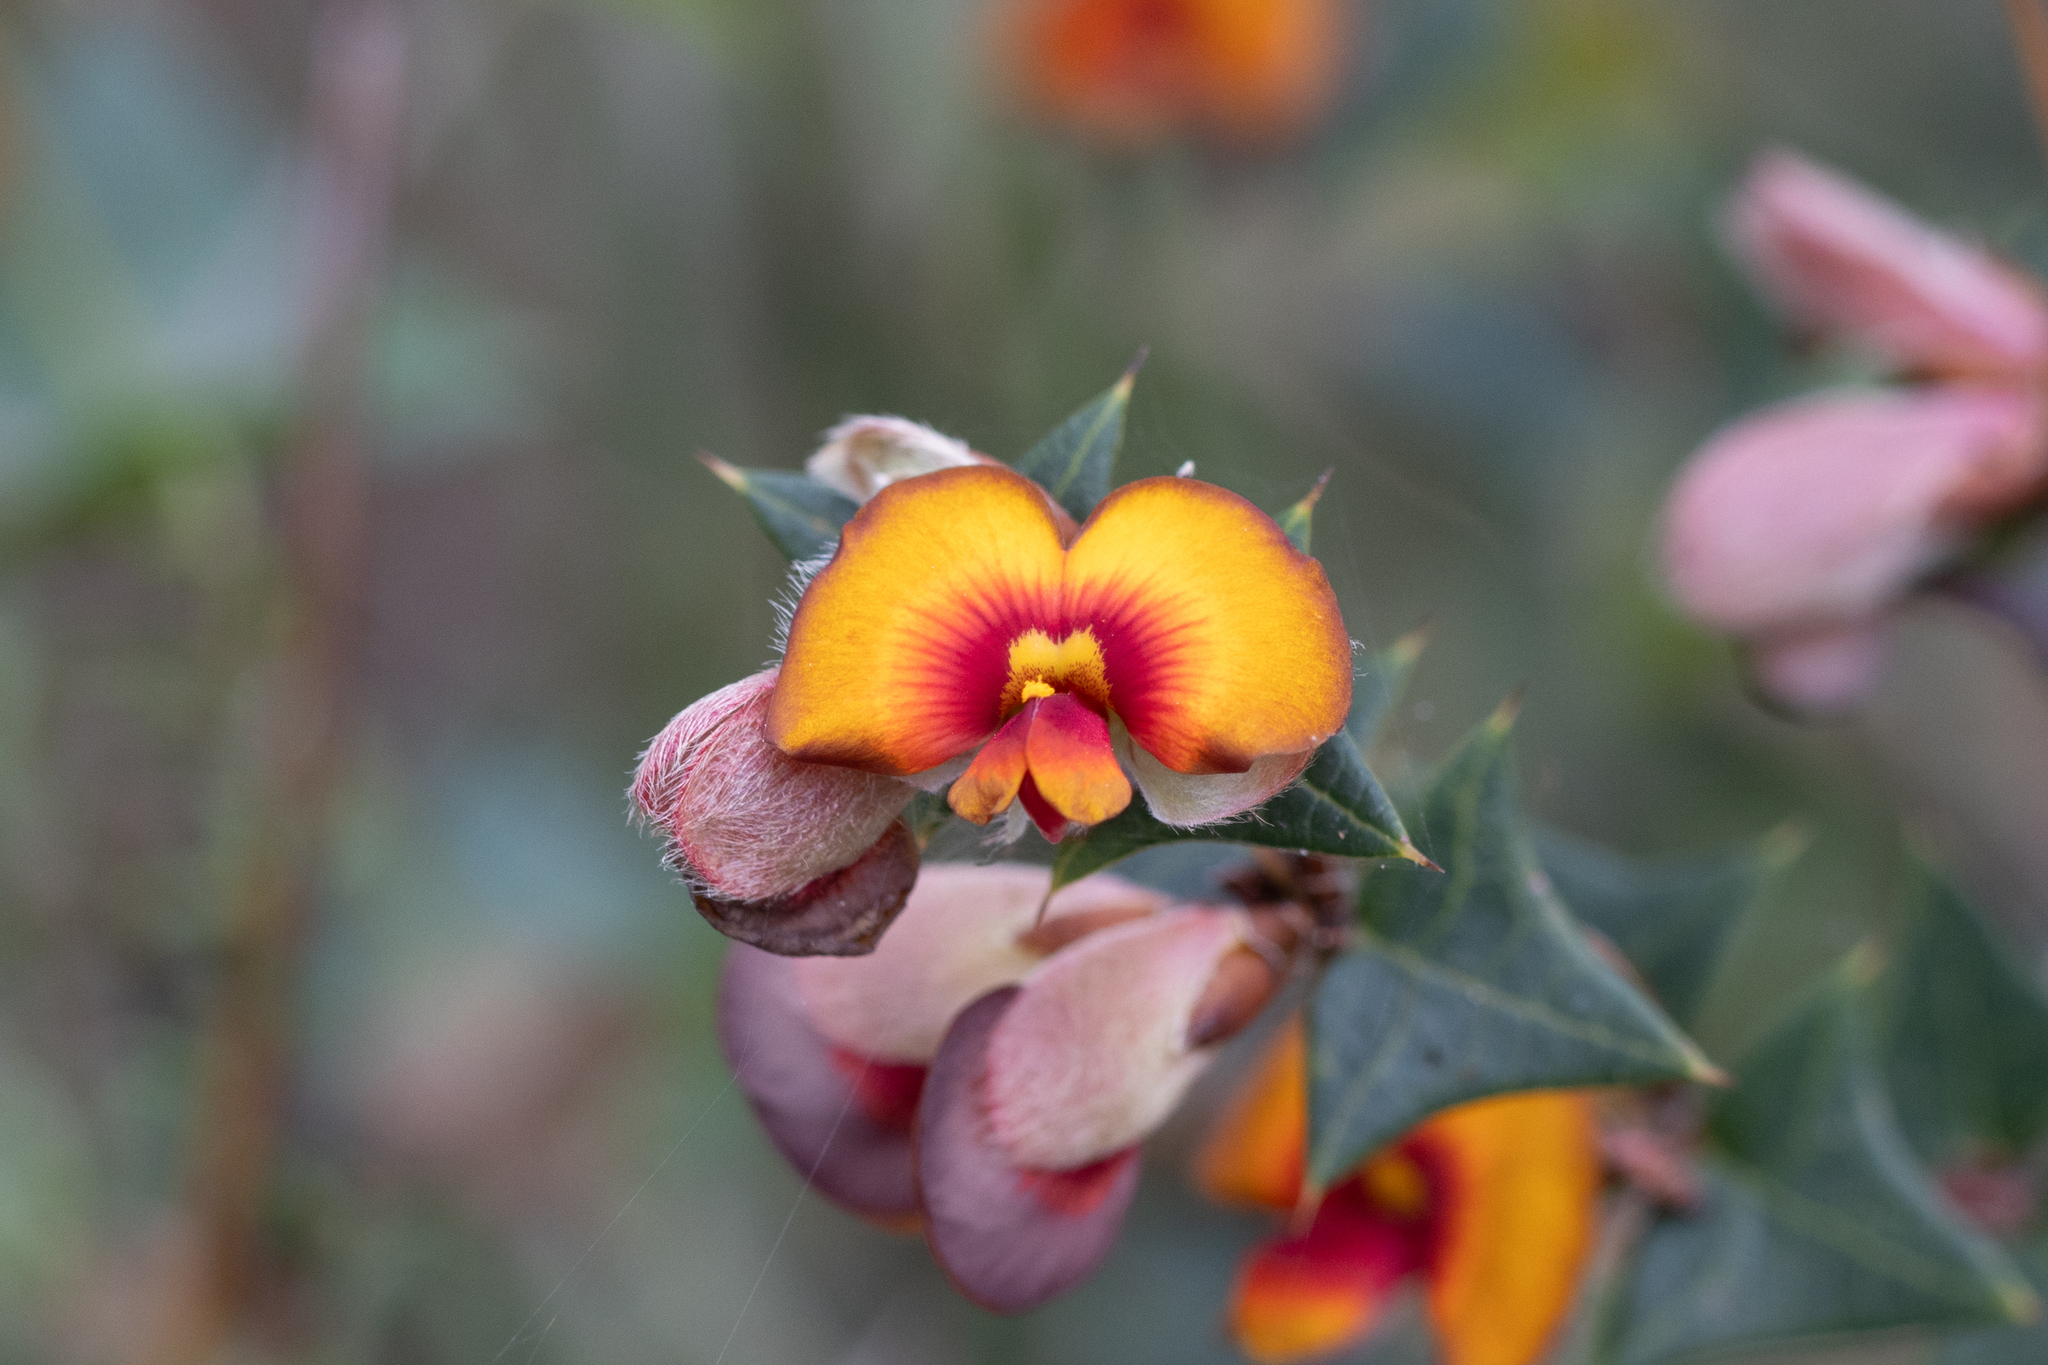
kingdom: Plantae
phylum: Tracheophyta
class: Magnoliopsida
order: Fabales
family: Fabaceae
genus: Platylobium
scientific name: Platylobium obtusangulum
